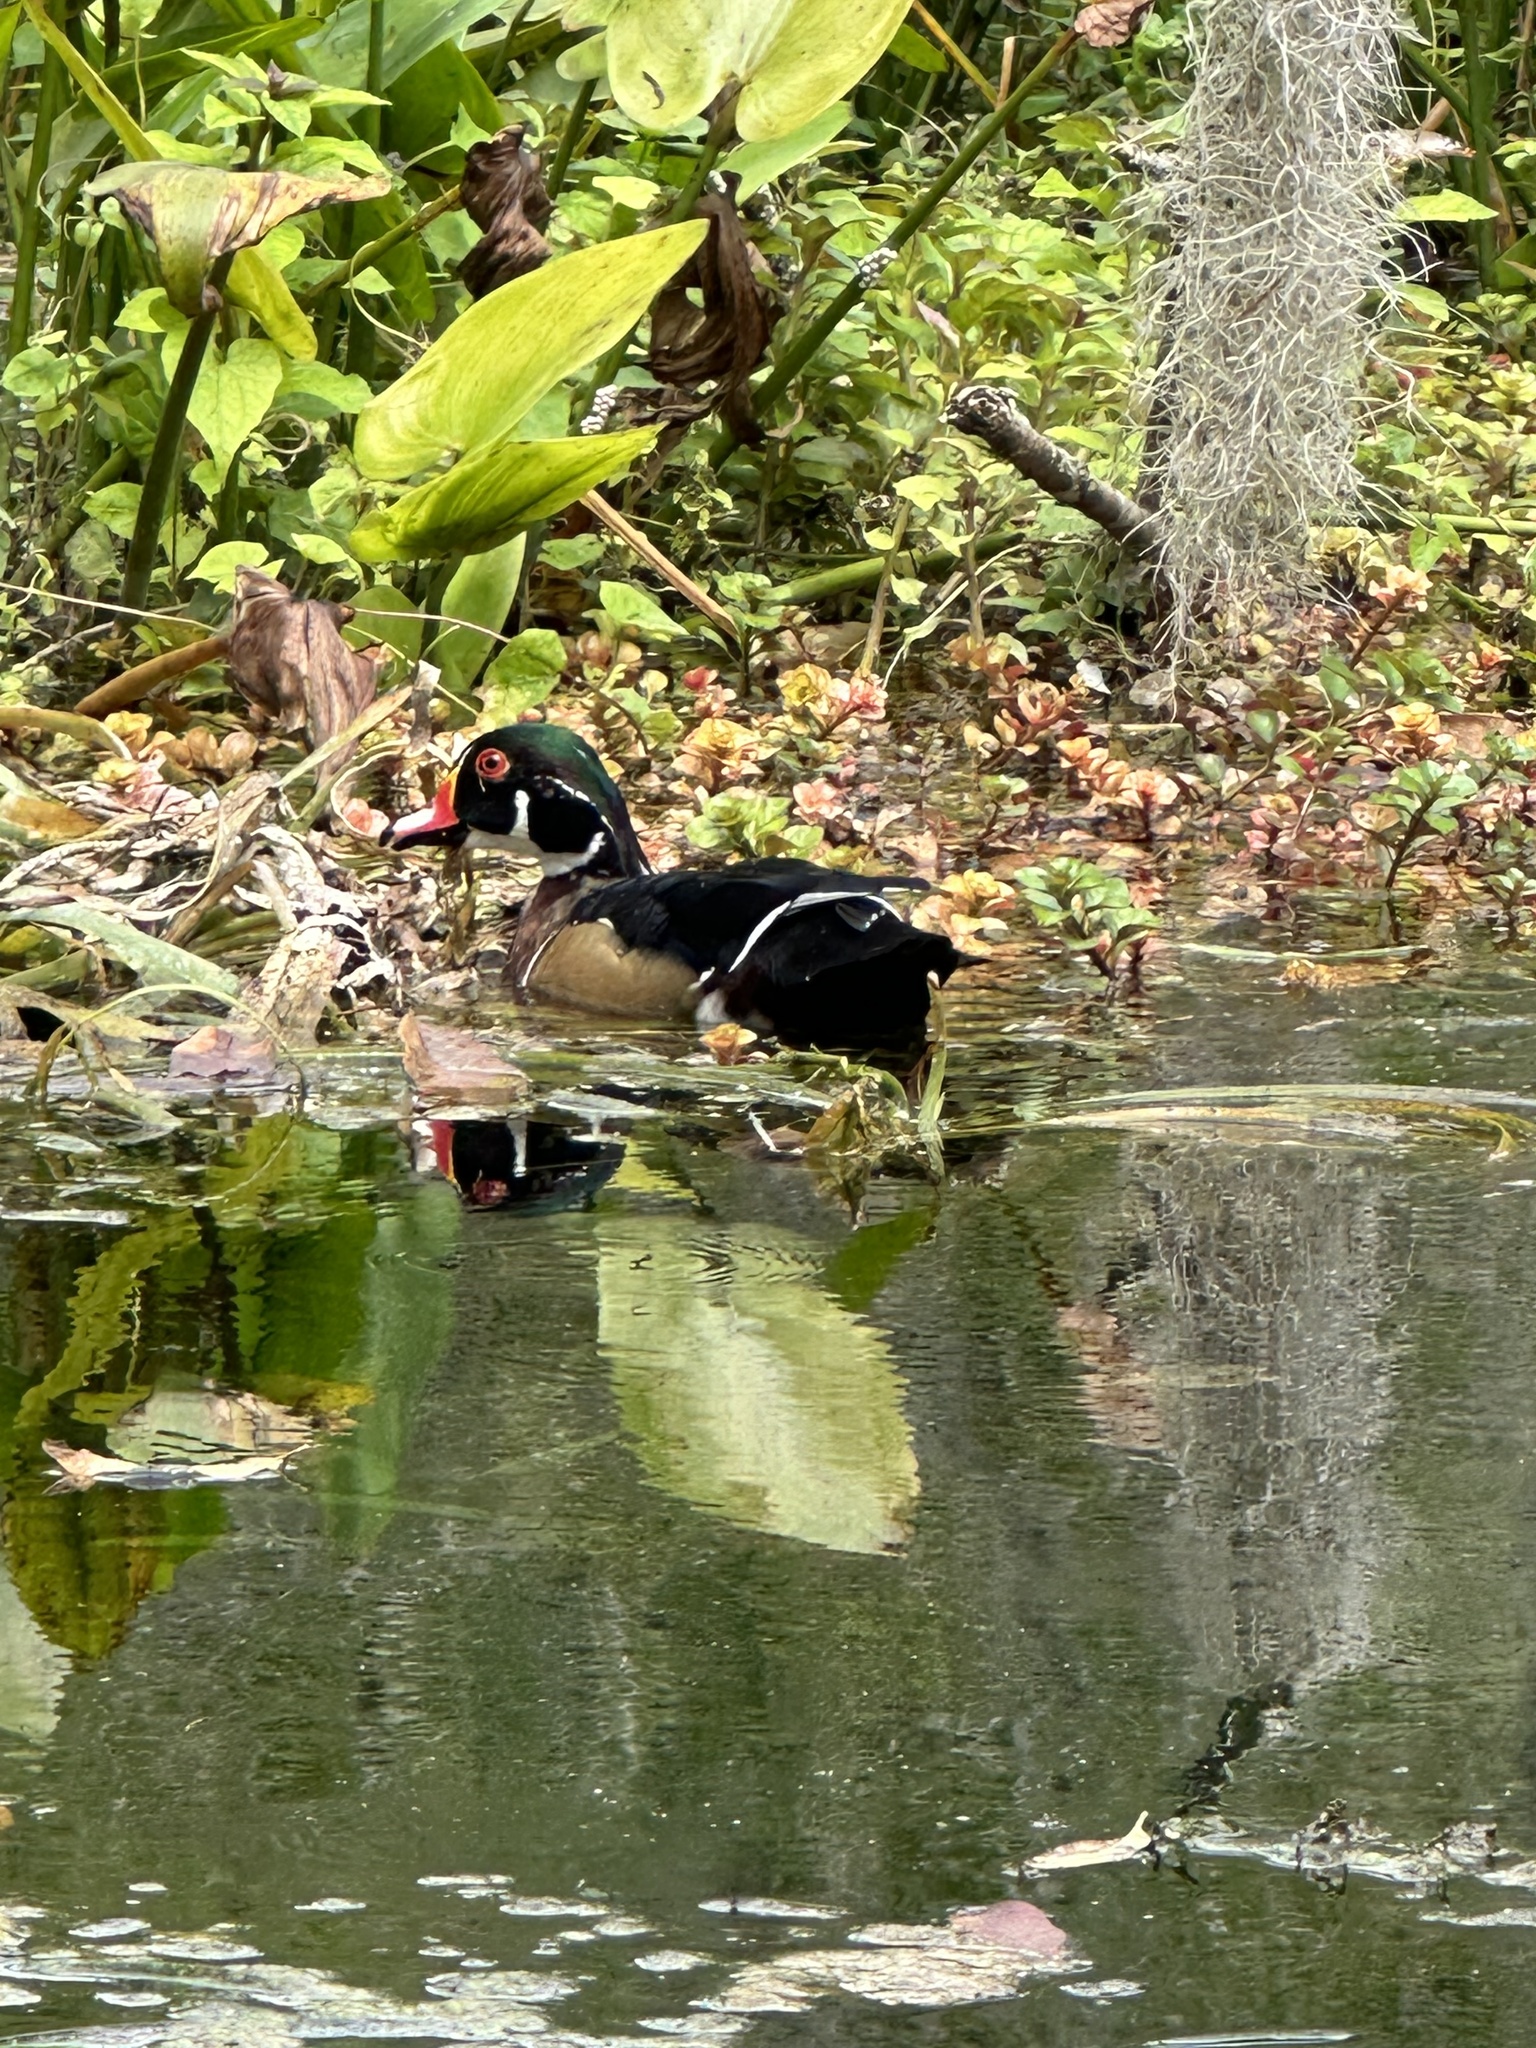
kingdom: Animalia
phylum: Chordata
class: Aves
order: Anseriformes
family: Anatidae
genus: Aix
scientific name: Aix sponsa
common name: Wood duck
